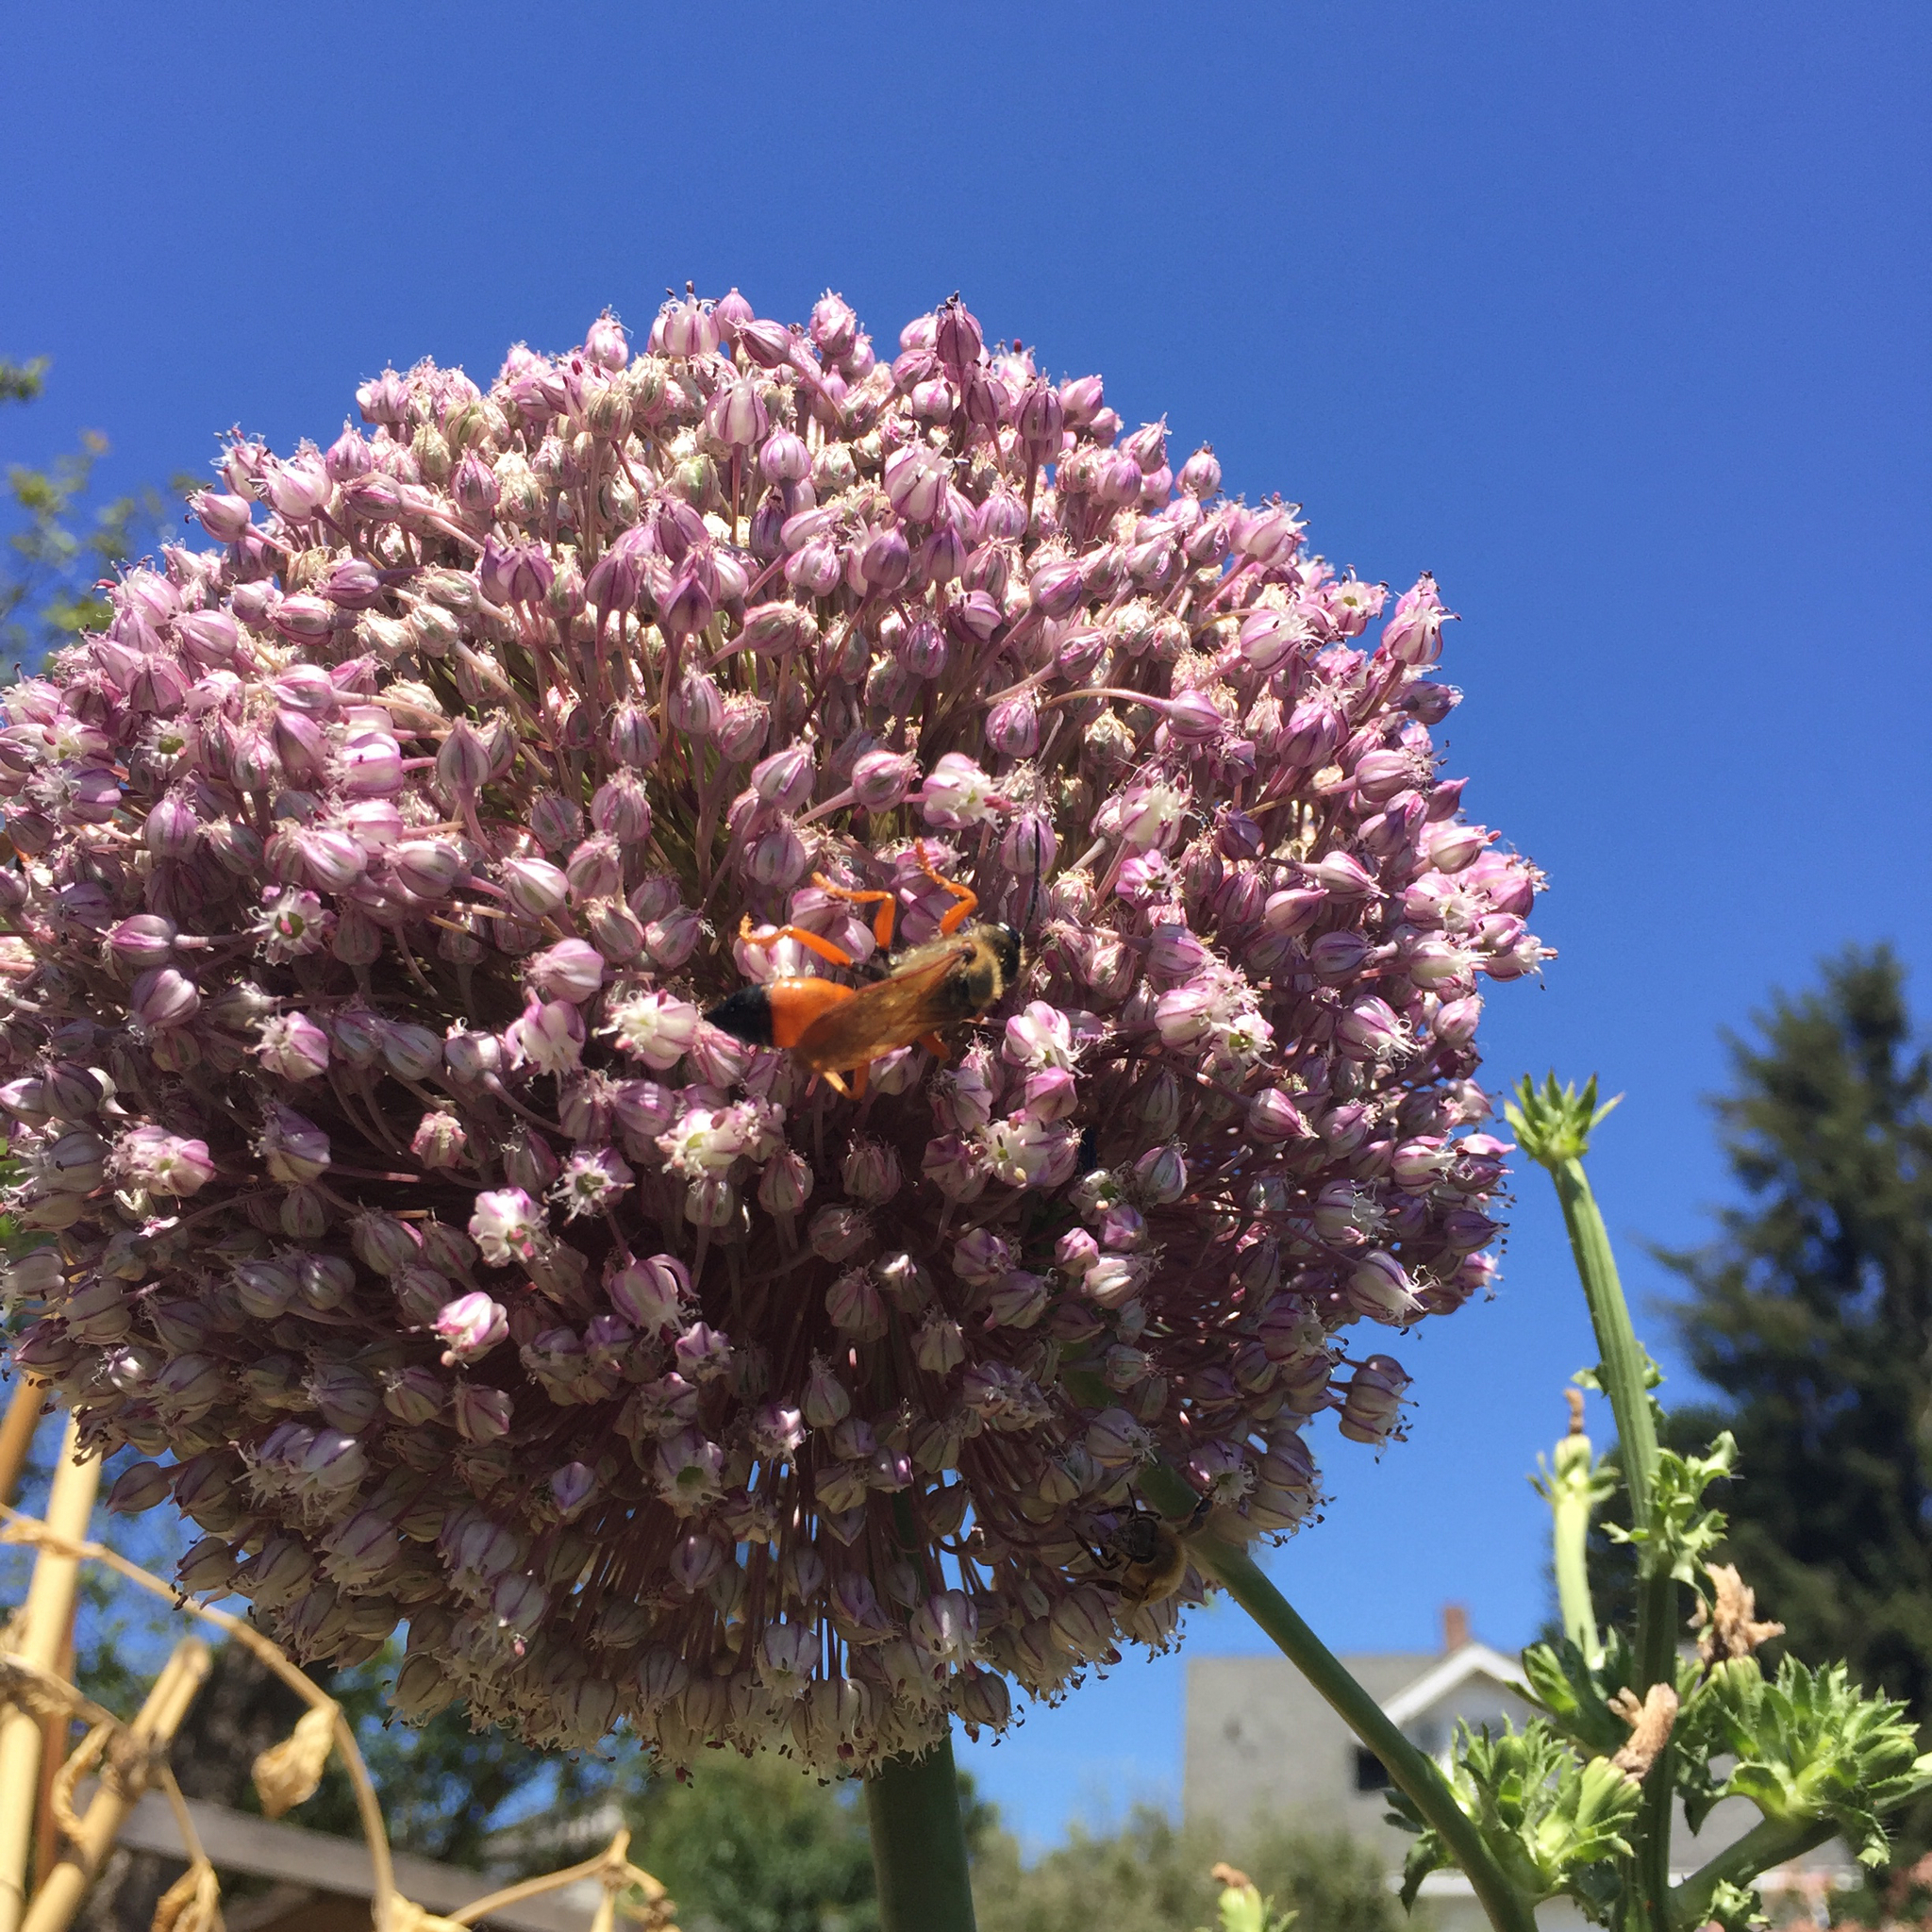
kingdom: Animalia
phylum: Arthropoda
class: Insecta
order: Hymenoptera
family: Sphecidae
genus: Sphex
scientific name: Sphex ichneumoneus
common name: Great golden digger wasp
